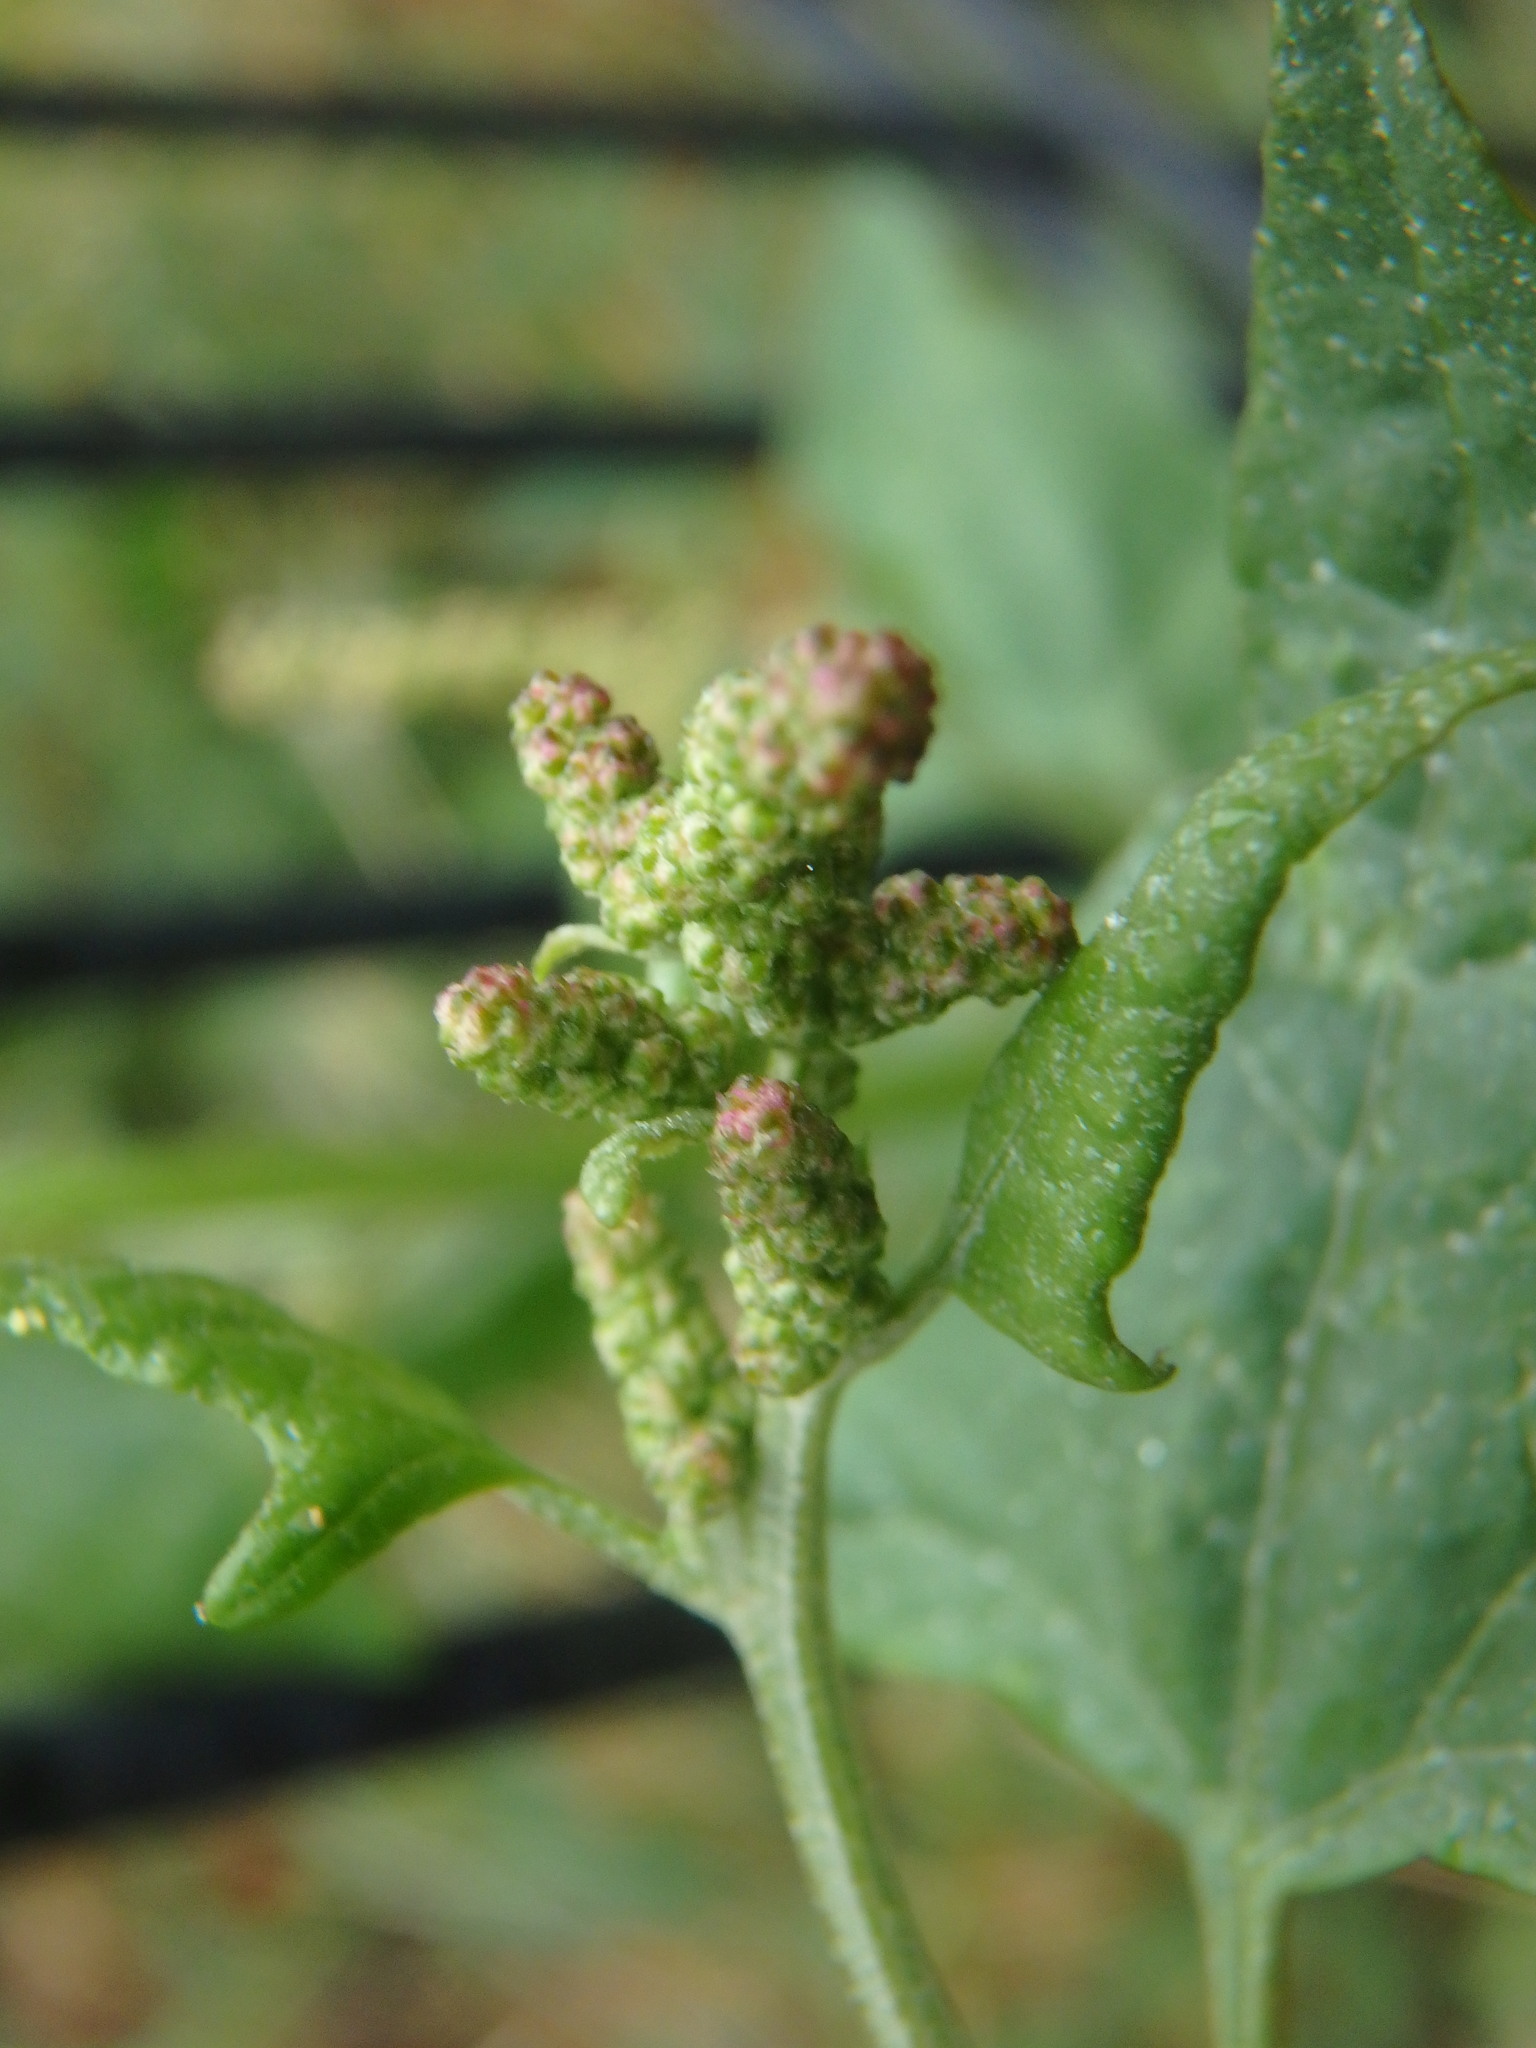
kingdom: Plantae
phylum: Tracheophyta
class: Magnoliopsida
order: Caryophyllales
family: Amaranthaceae
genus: Atriplex
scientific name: Atriplex prostrata
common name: Spear-leaved orache
